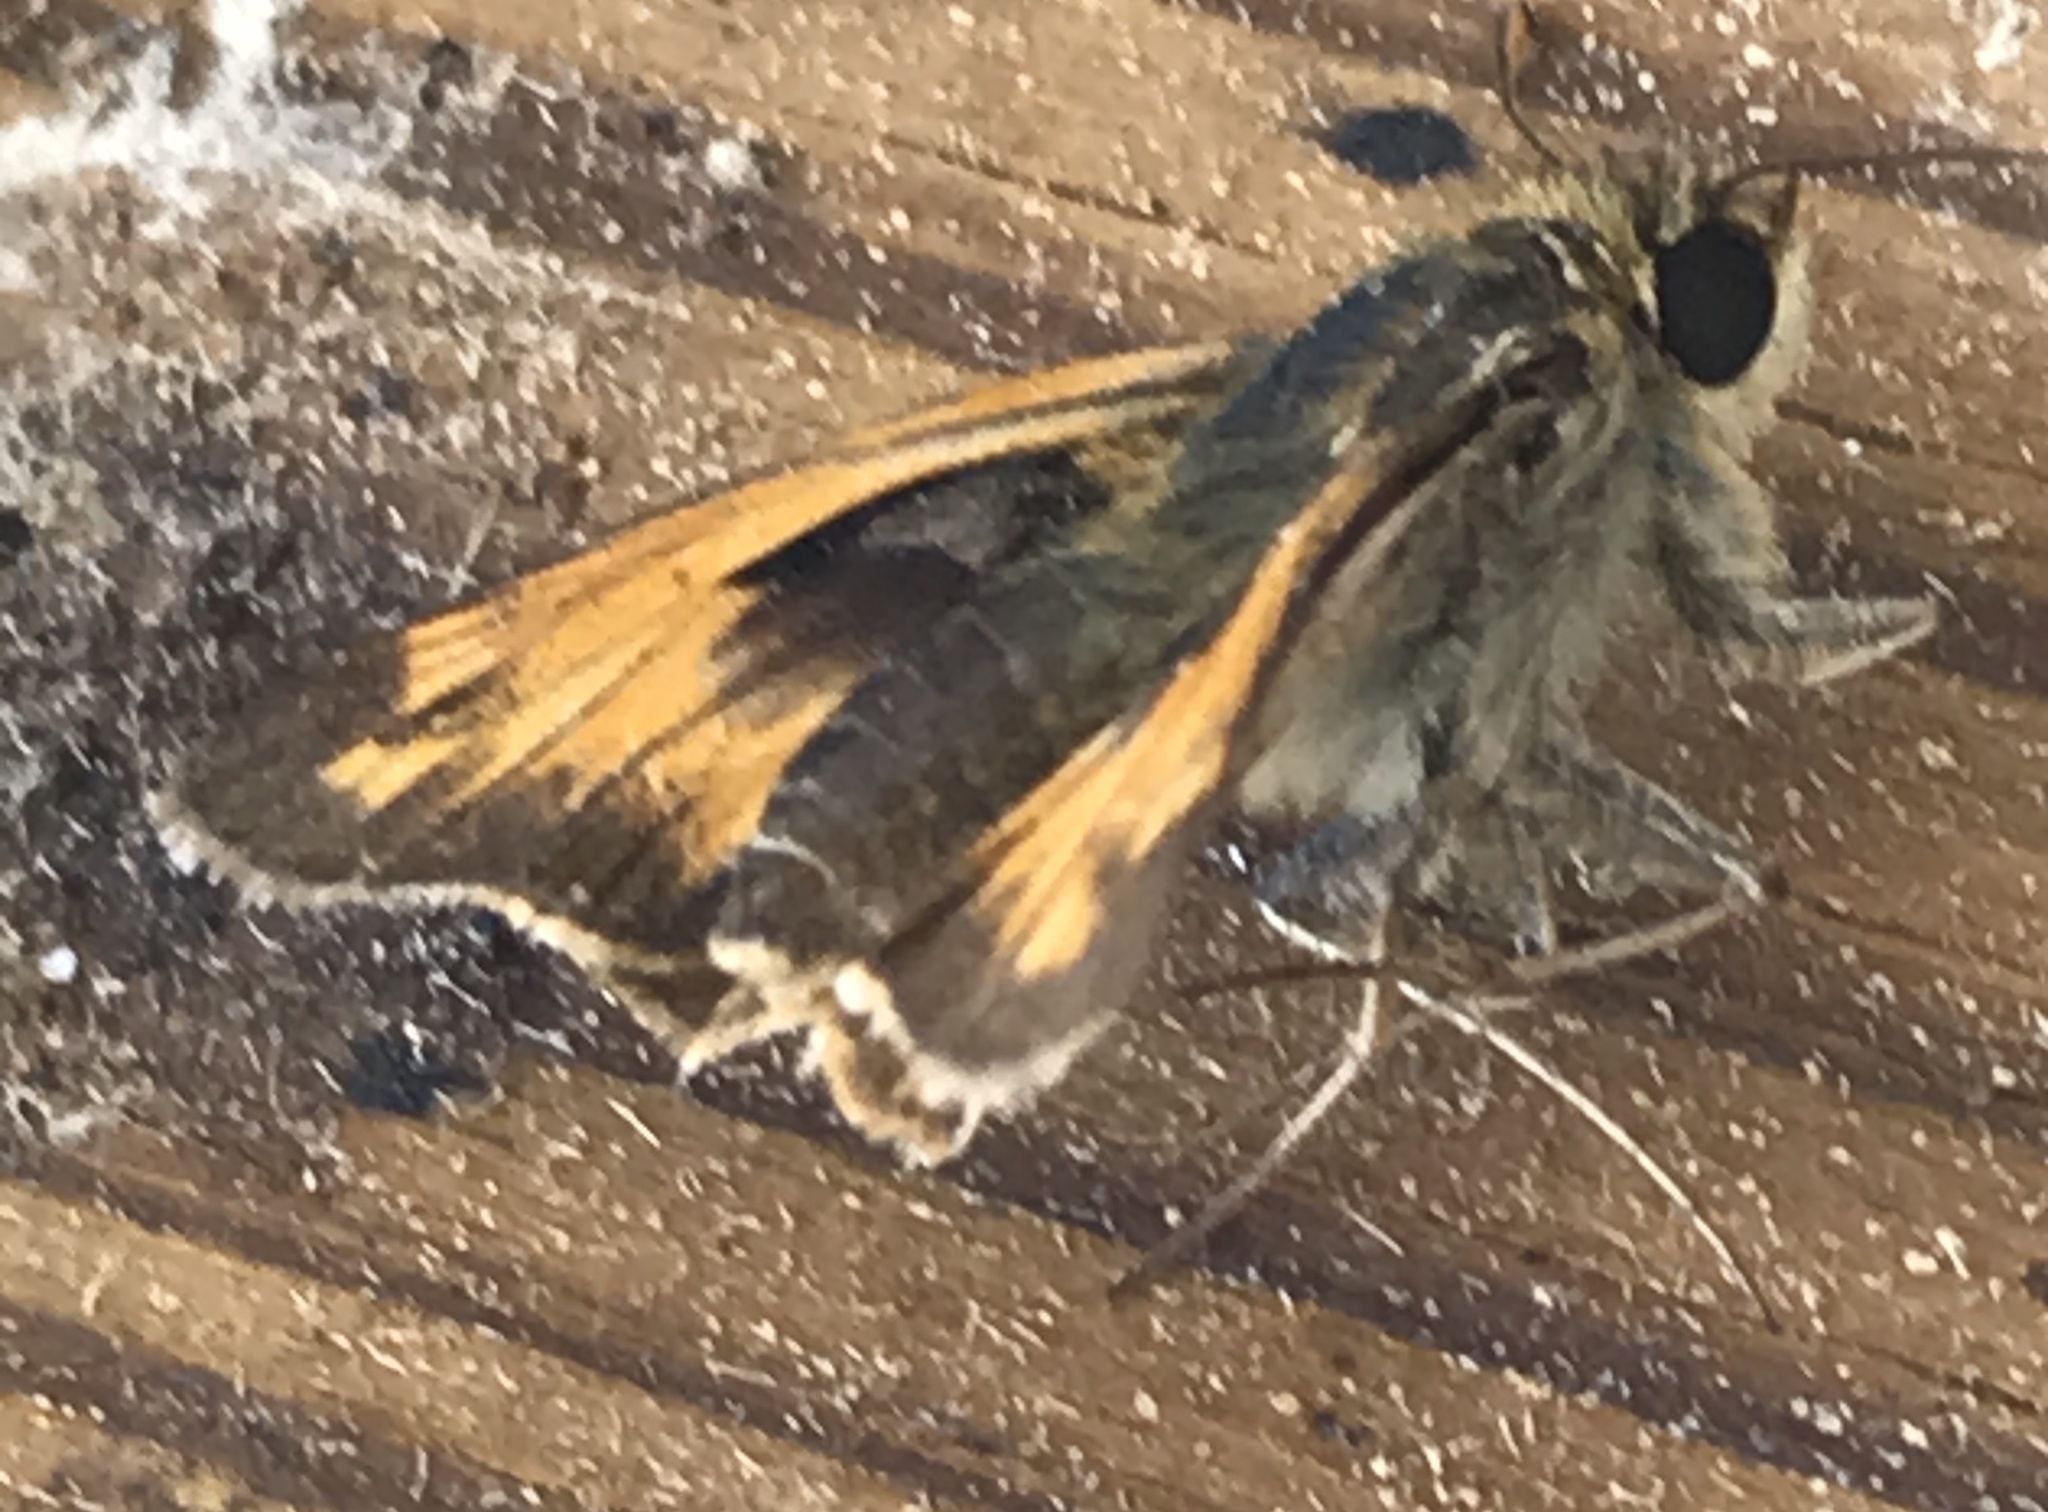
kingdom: Animalia
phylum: Arthropoda
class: Insecta
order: Lepidoptera
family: Hesperiidae
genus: Atalopedes
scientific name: Atalopedes
